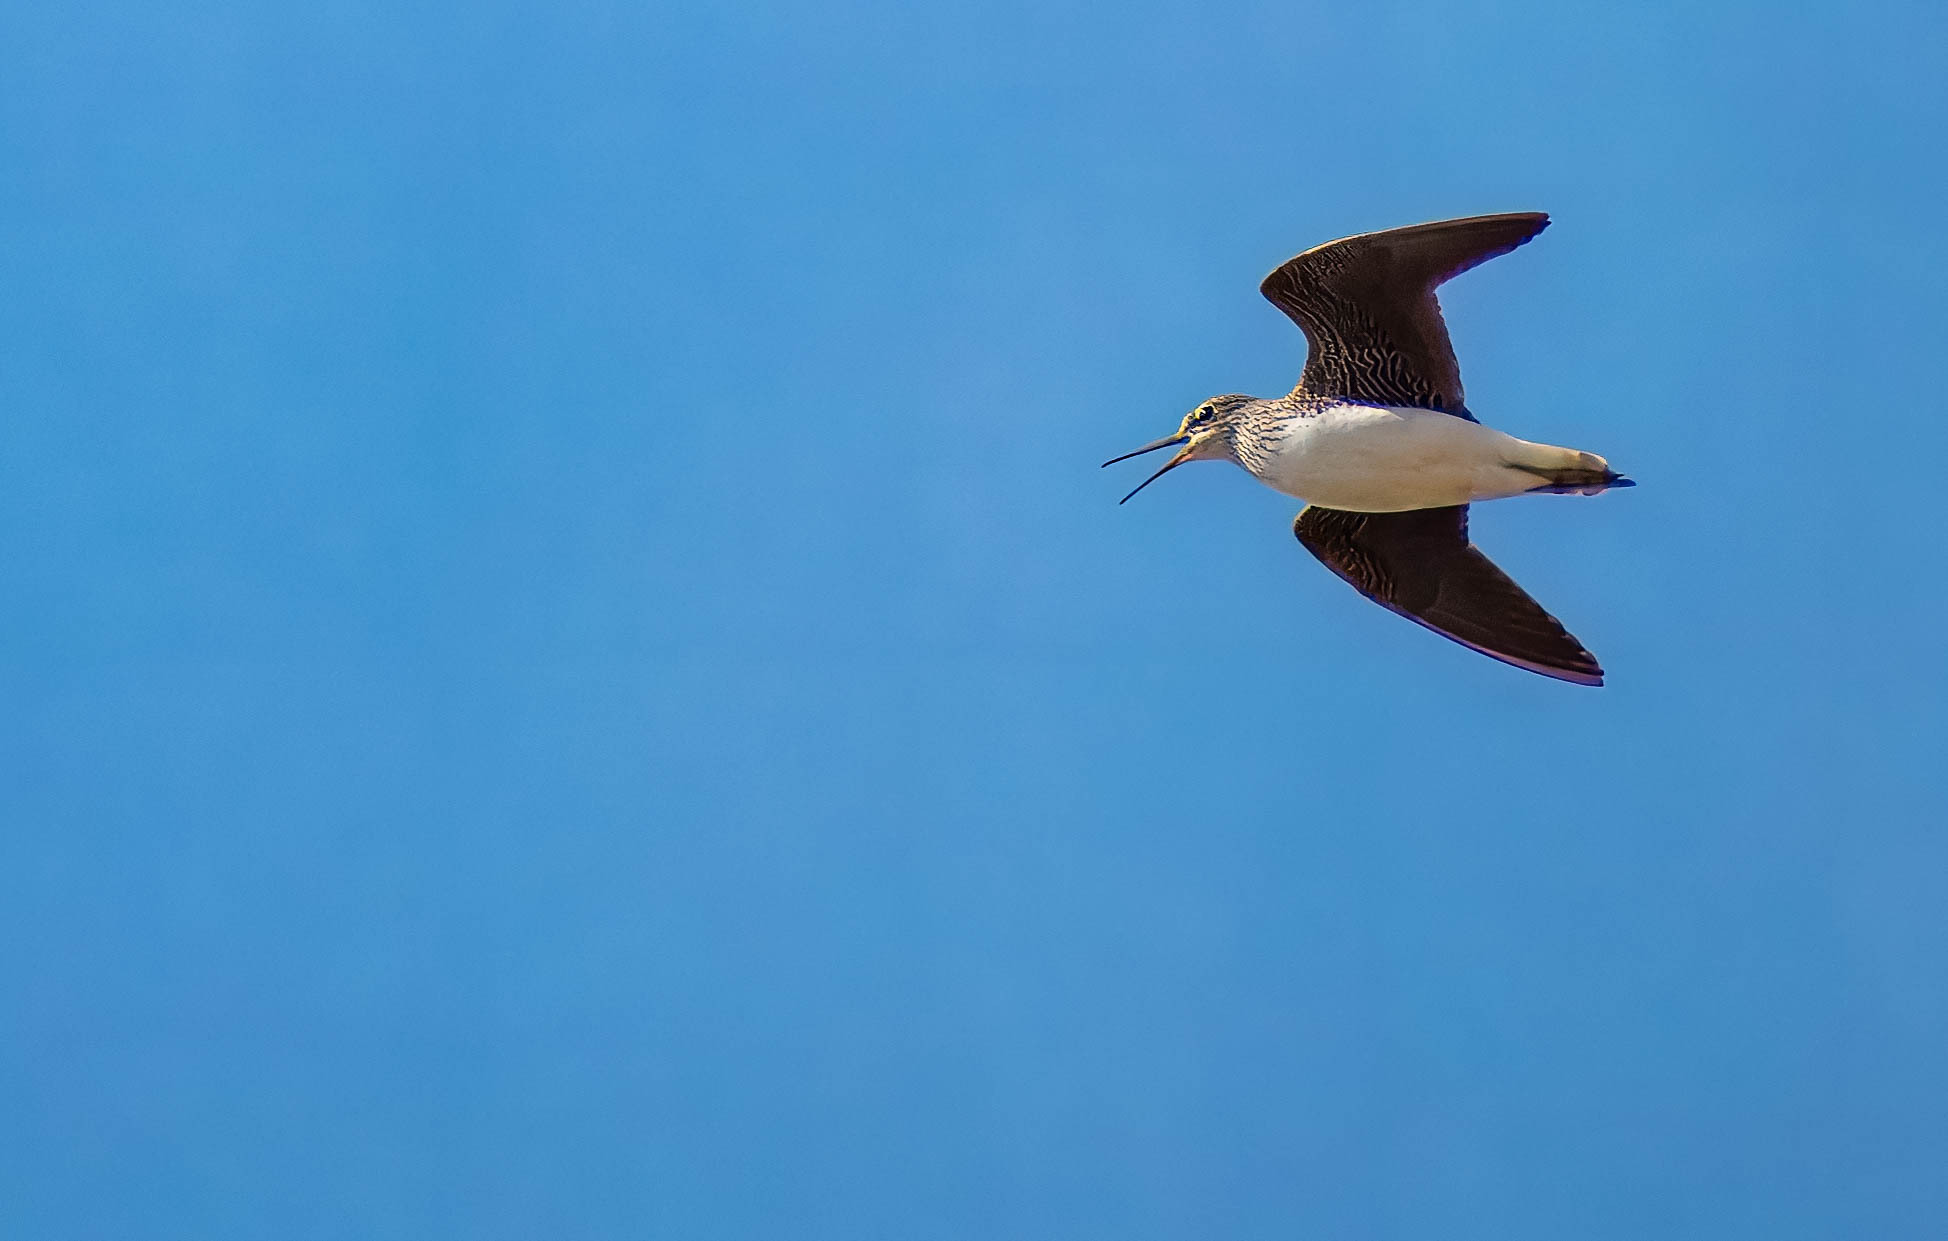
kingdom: Animalia
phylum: Chordata
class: Aves
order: Charadriiformes
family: Scolopacidae
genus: Tringa
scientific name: Tringa ochropus
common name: Green sandpiper
